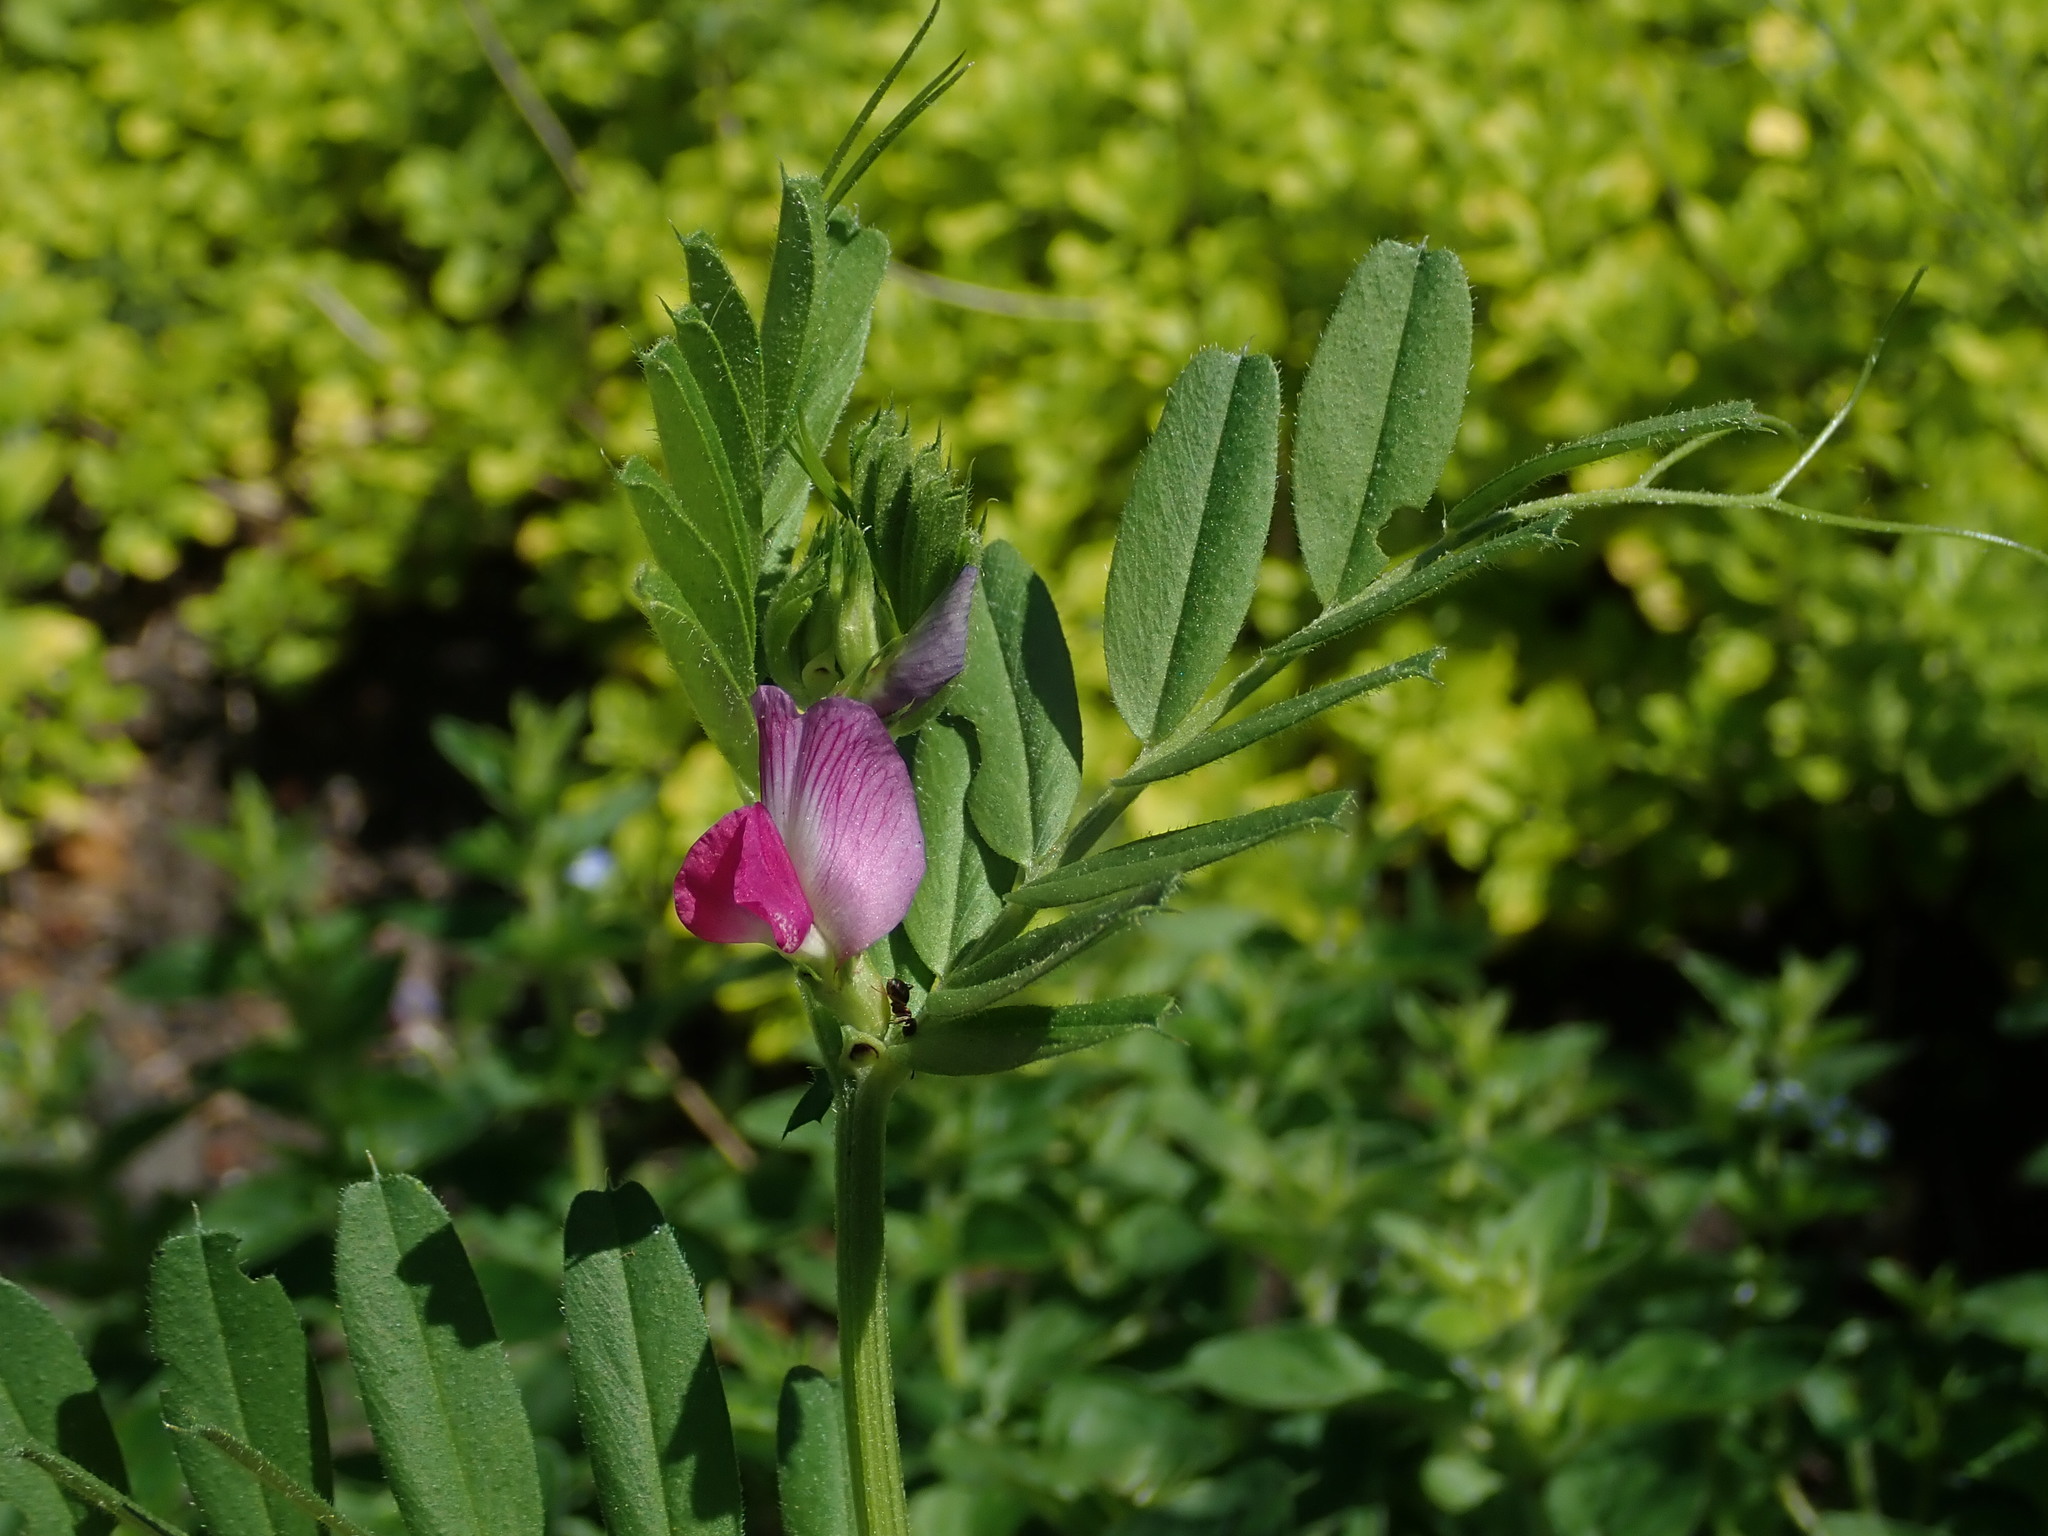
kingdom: Plantae
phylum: Tracheophyta
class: Magnoliopsida
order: Fabales
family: Fabaceae
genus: Vicia
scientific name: Vicia sativa
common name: Garden vetch
